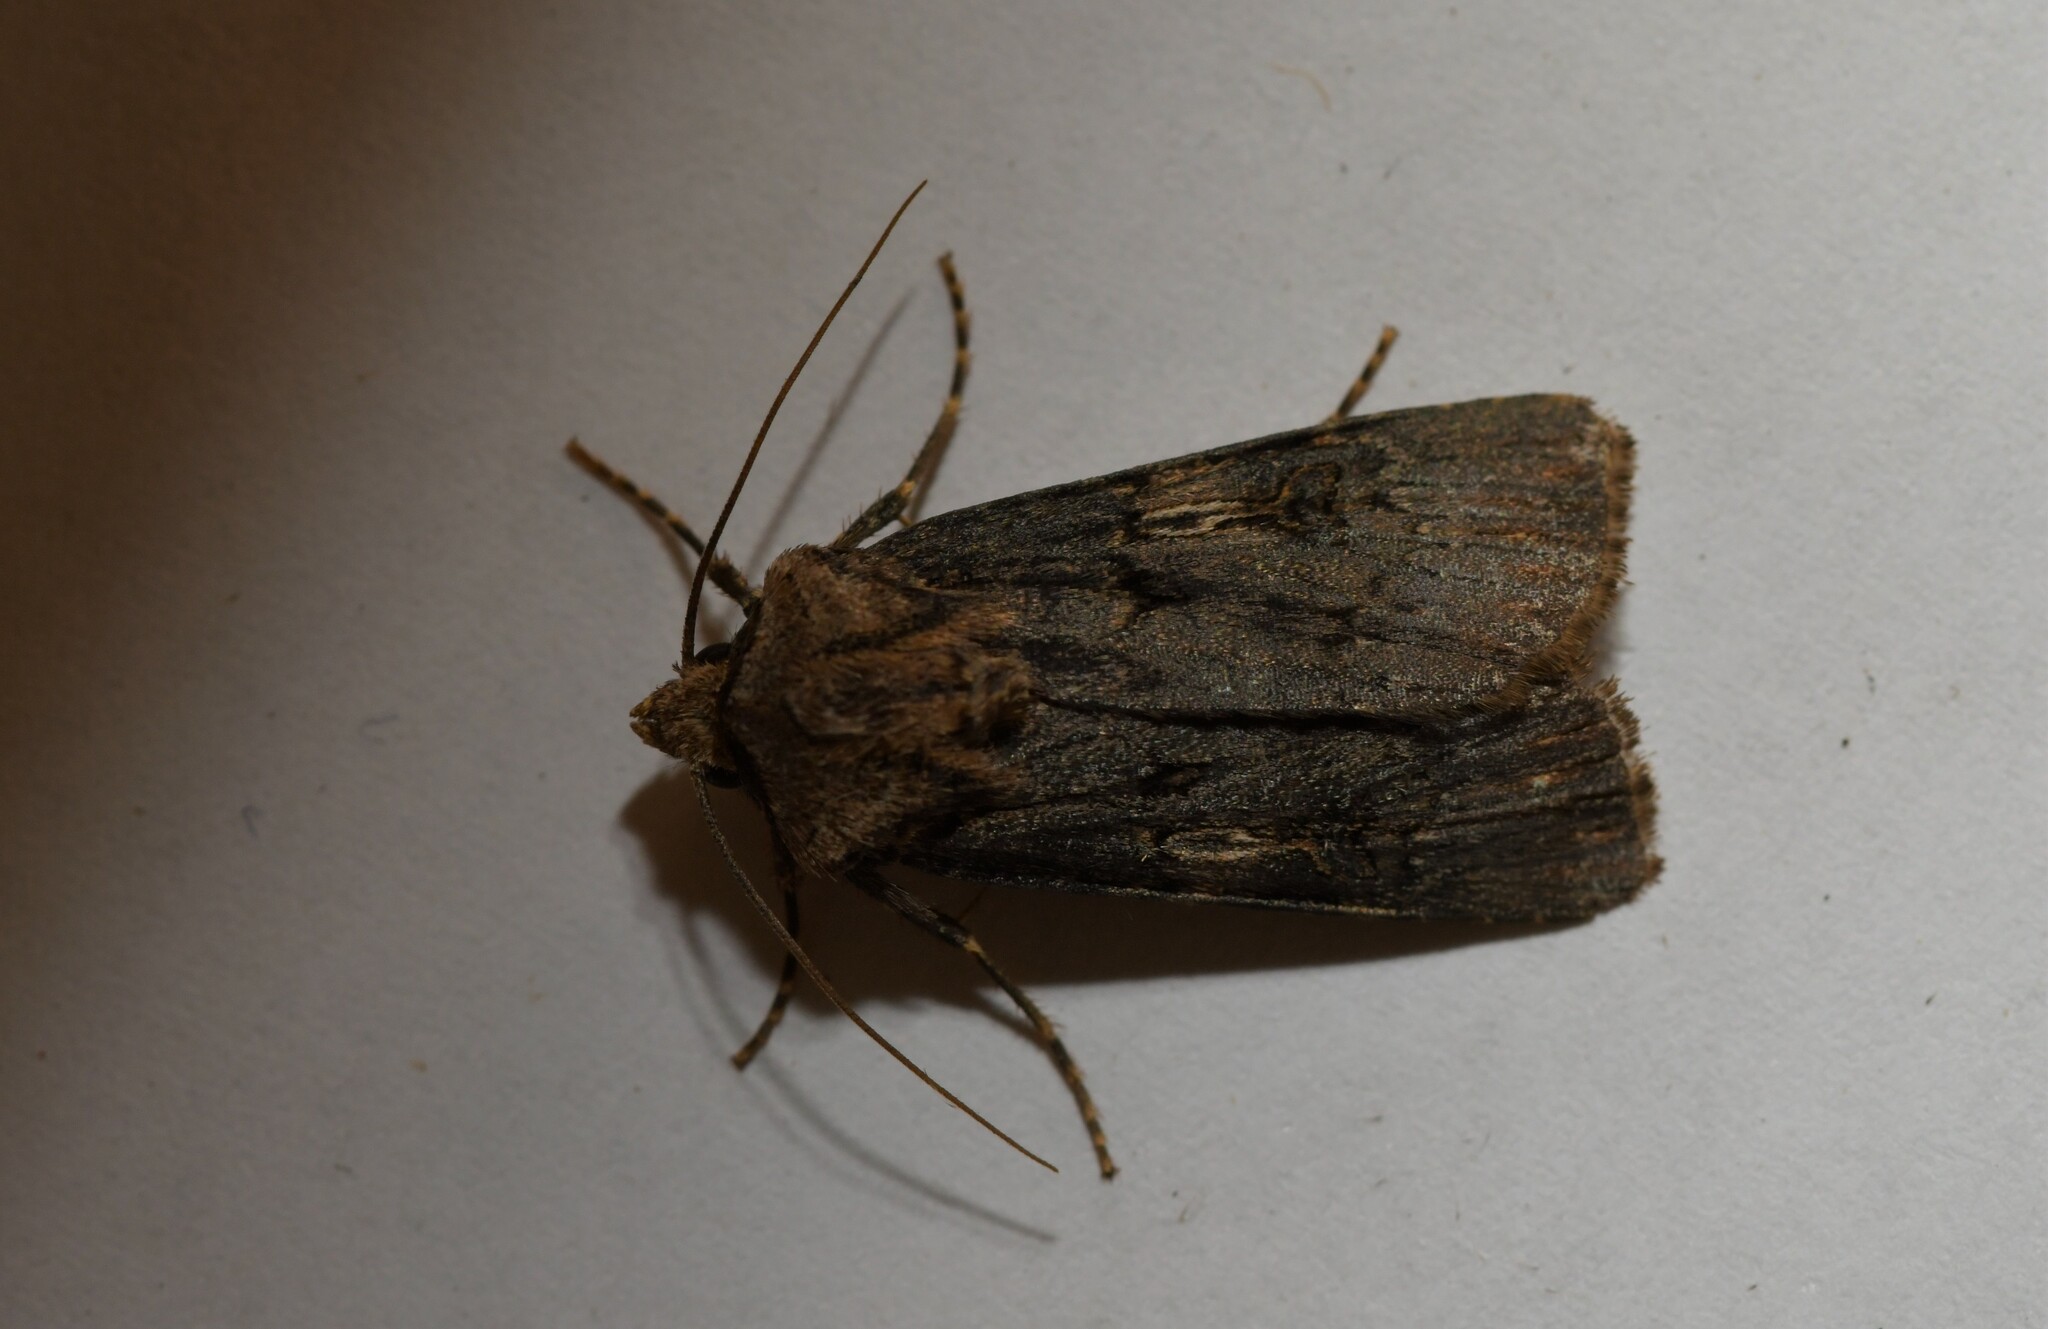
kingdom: Animalia
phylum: Arthropoda
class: Insecta
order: Lepidoptera
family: Noctuidae
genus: Agrotis
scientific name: Agrotis puta
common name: Shuttle-shaped dart
